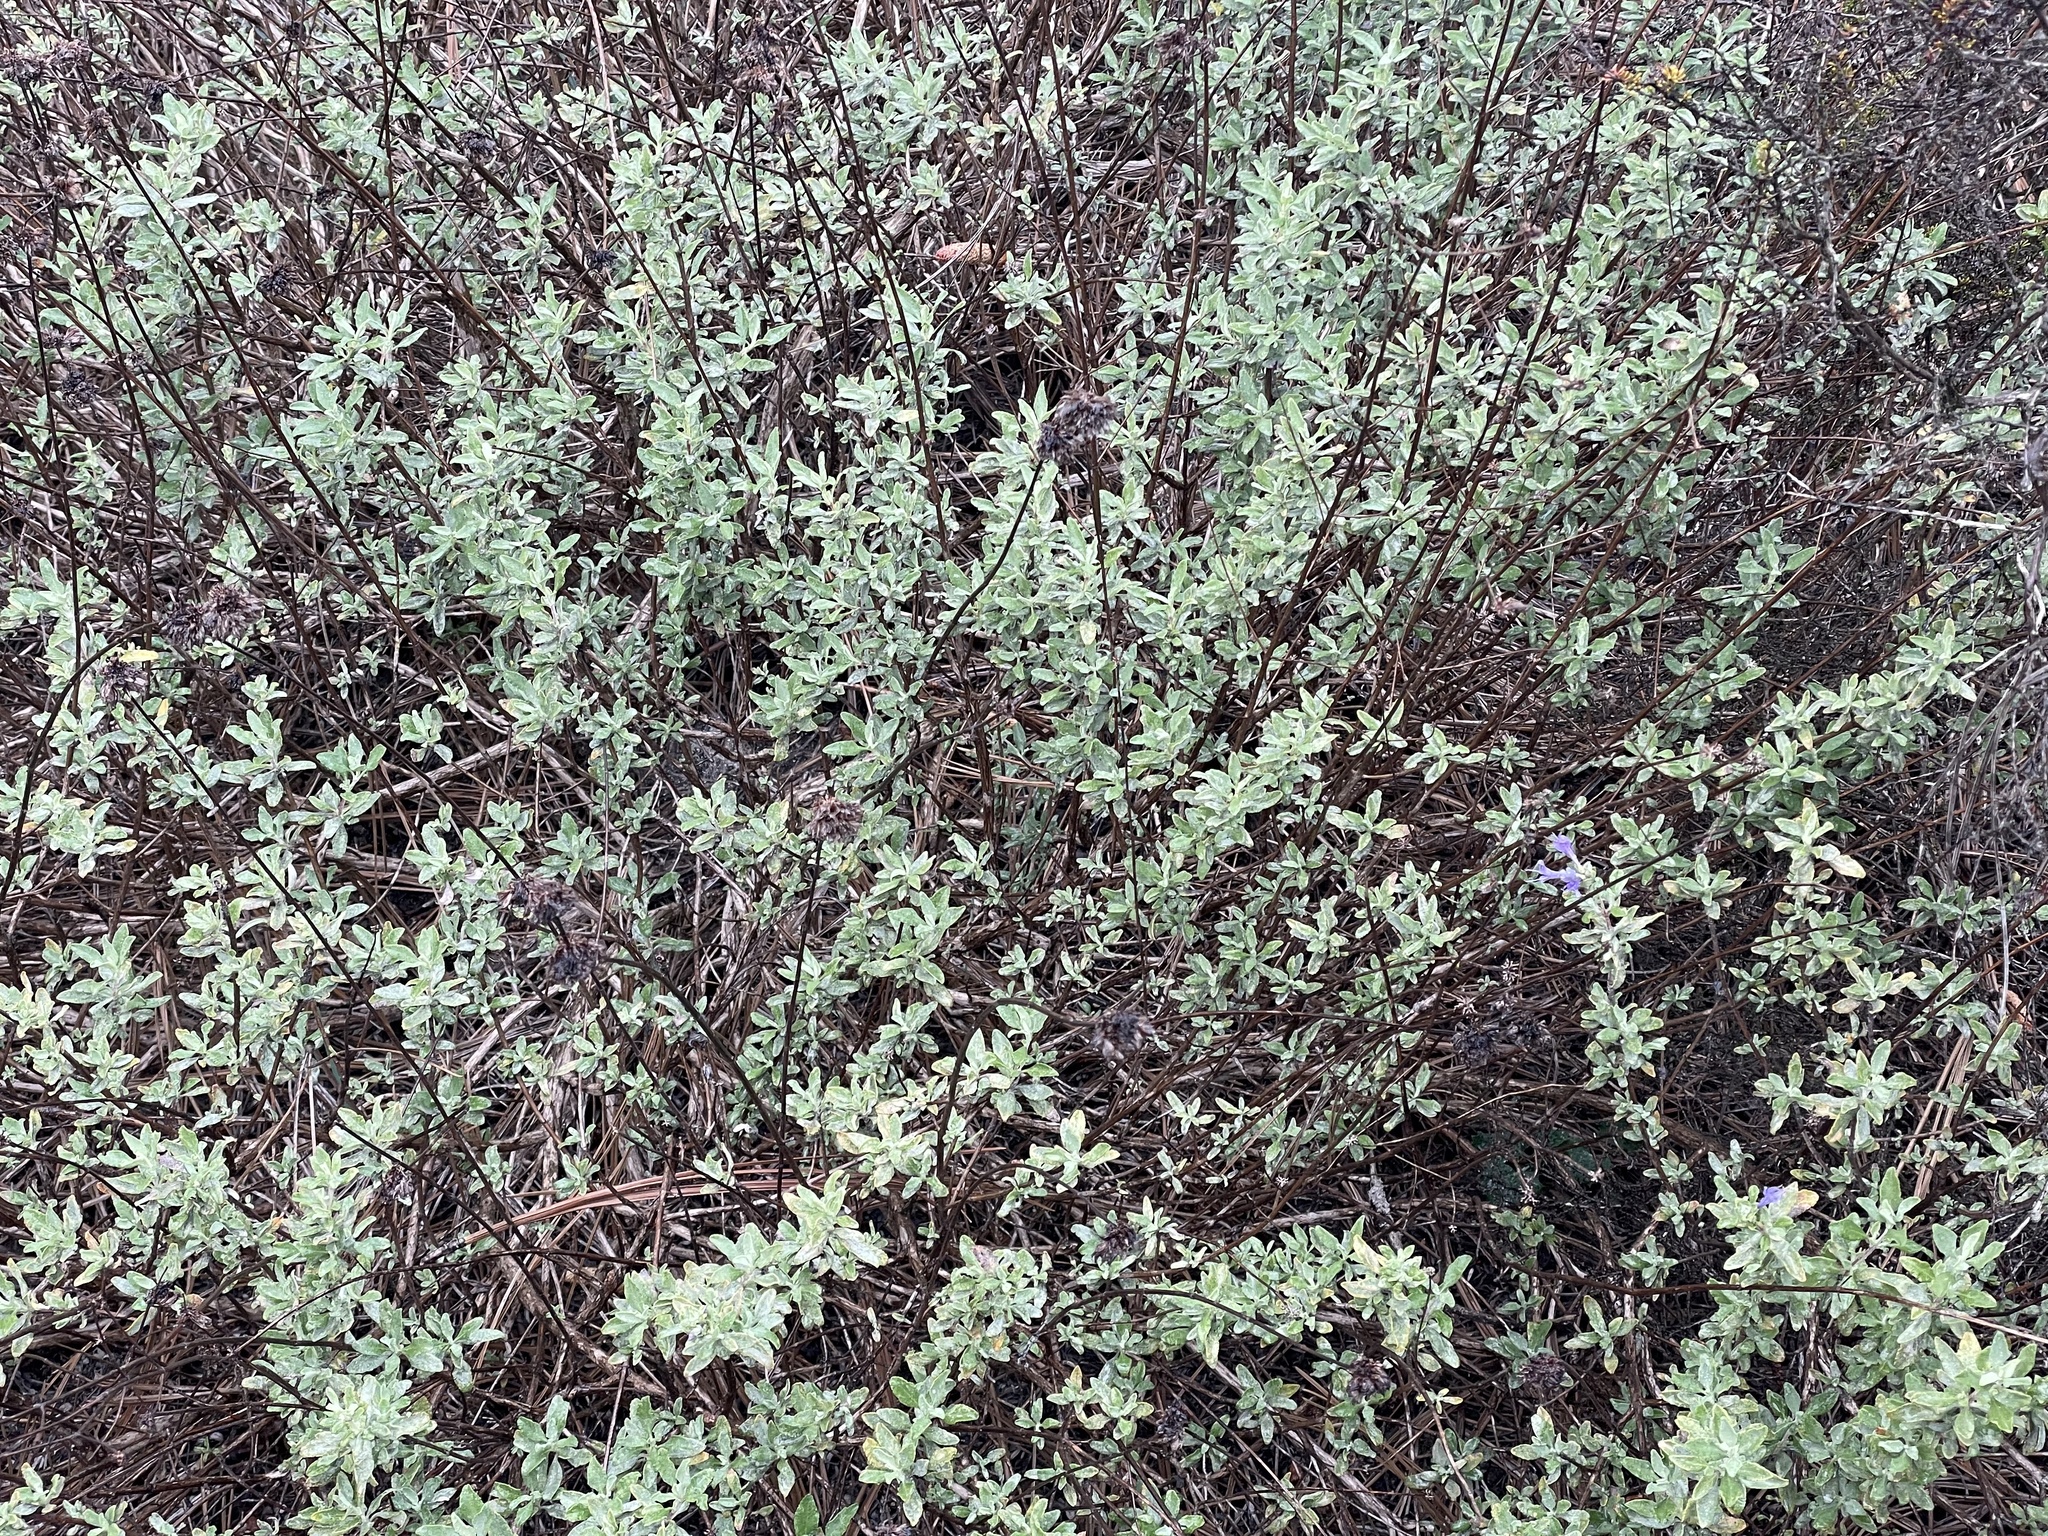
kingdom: Plantae
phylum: Tracheophyta
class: Magnoliopsida
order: Lamiales
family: Lamiaceae
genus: Salvia
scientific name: Salvia clevelandii
